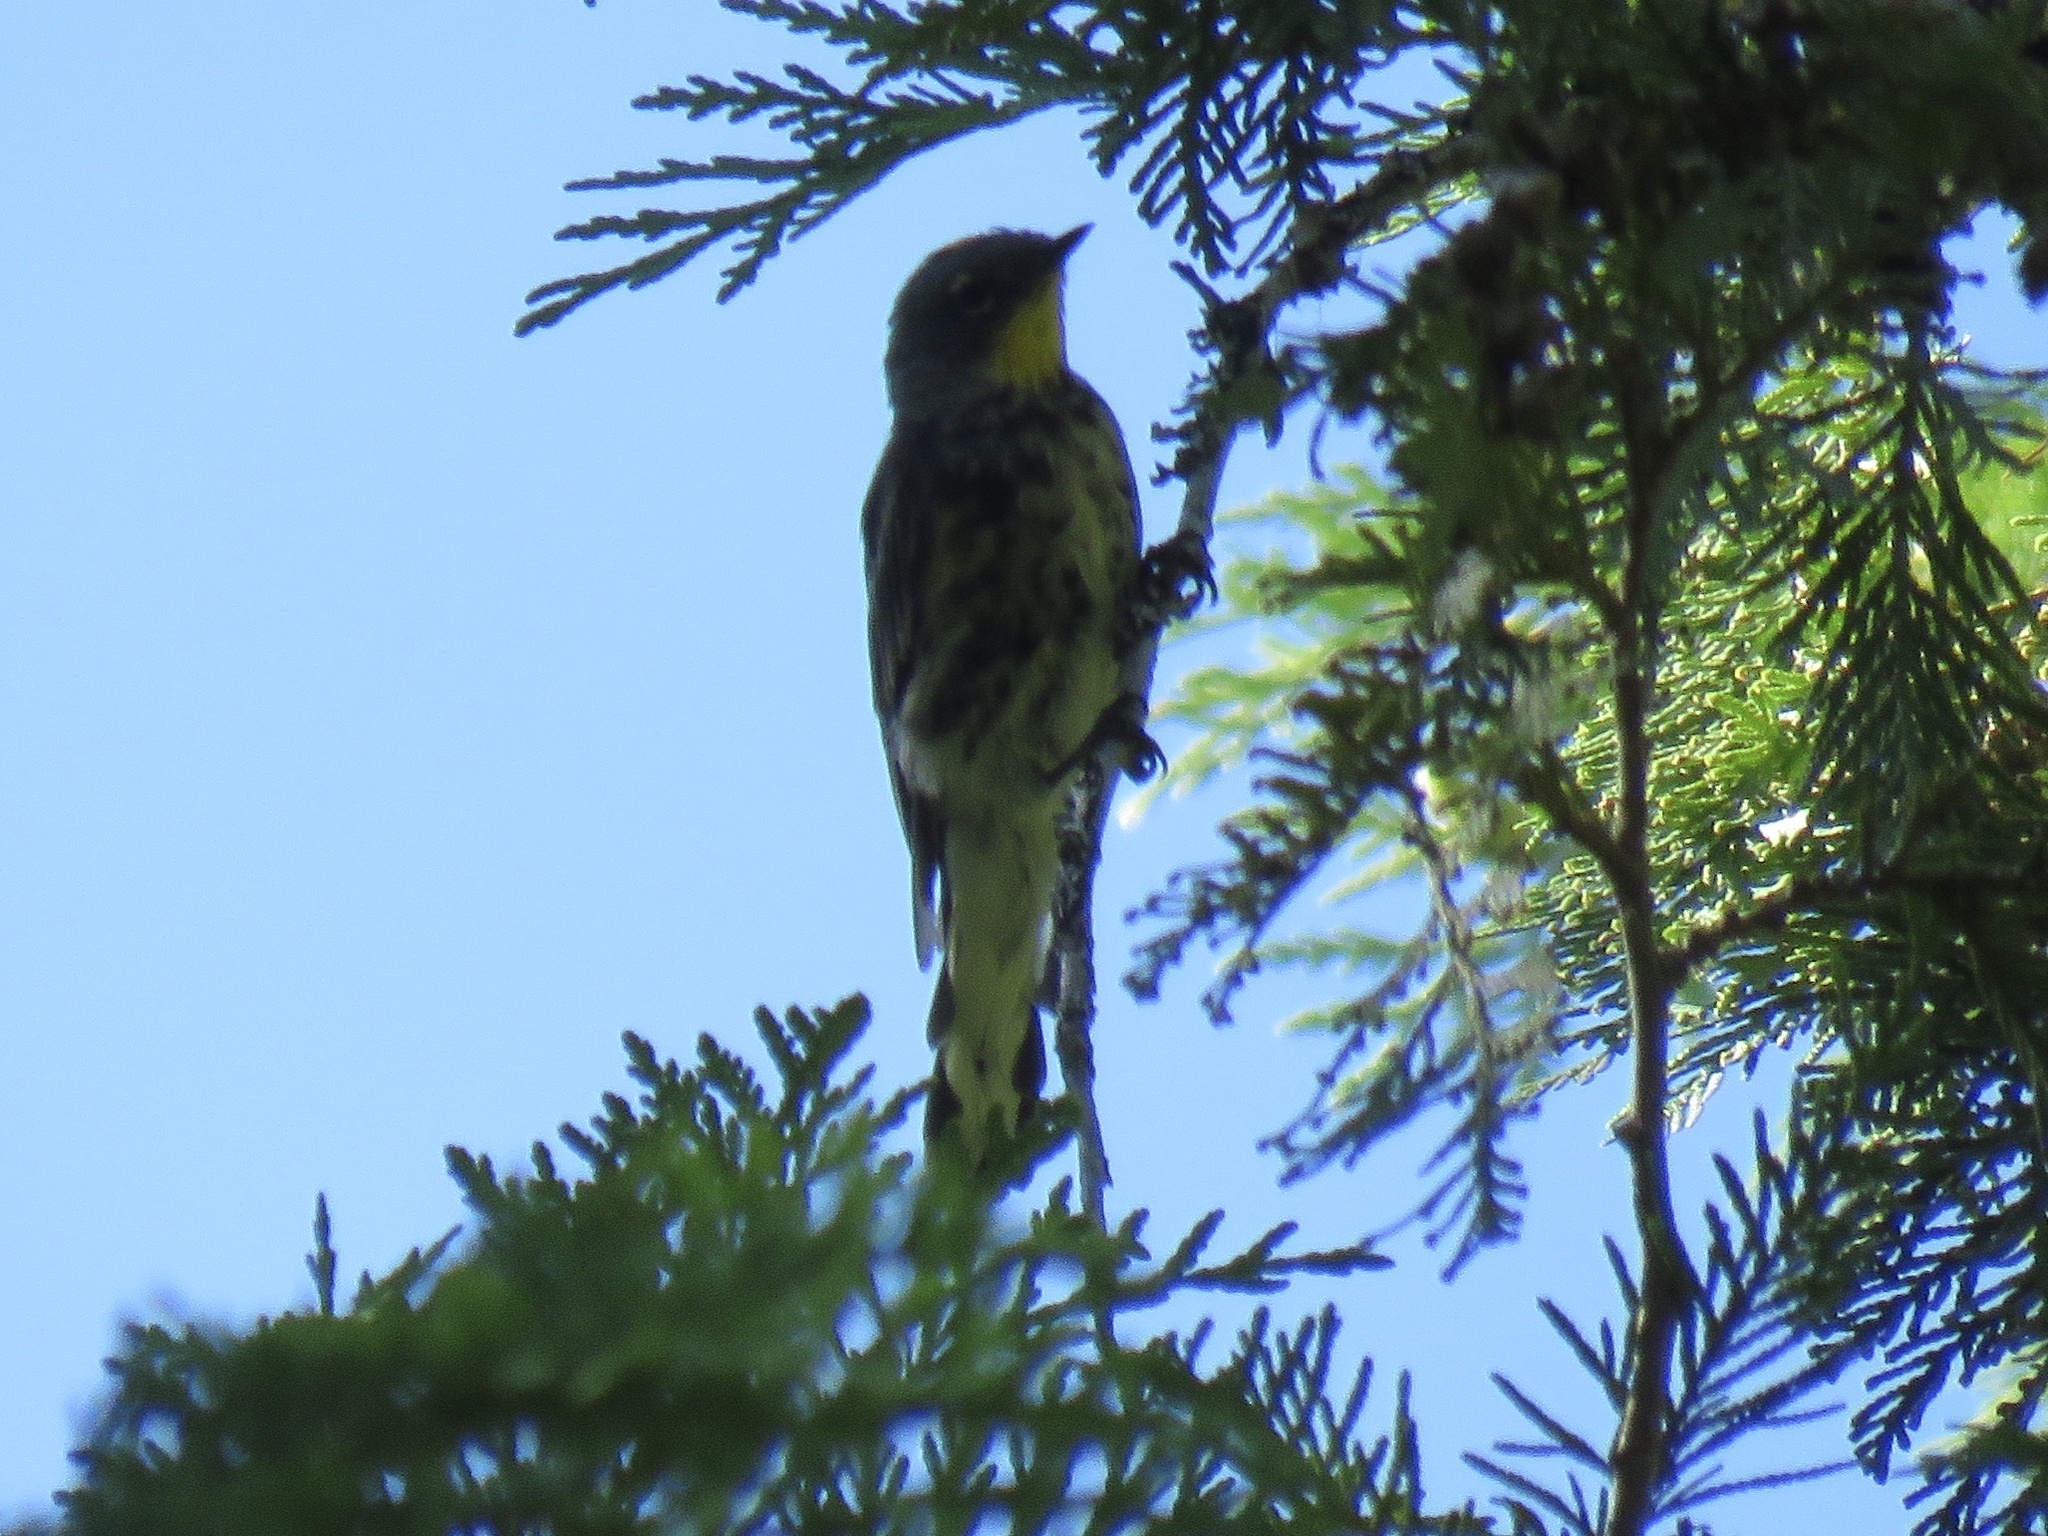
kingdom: Animalia
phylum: Chordata
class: Aves
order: Passeriformes
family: Parulidae
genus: Setophaga
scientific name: Setophaga coronata
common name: Myrtle warbler
